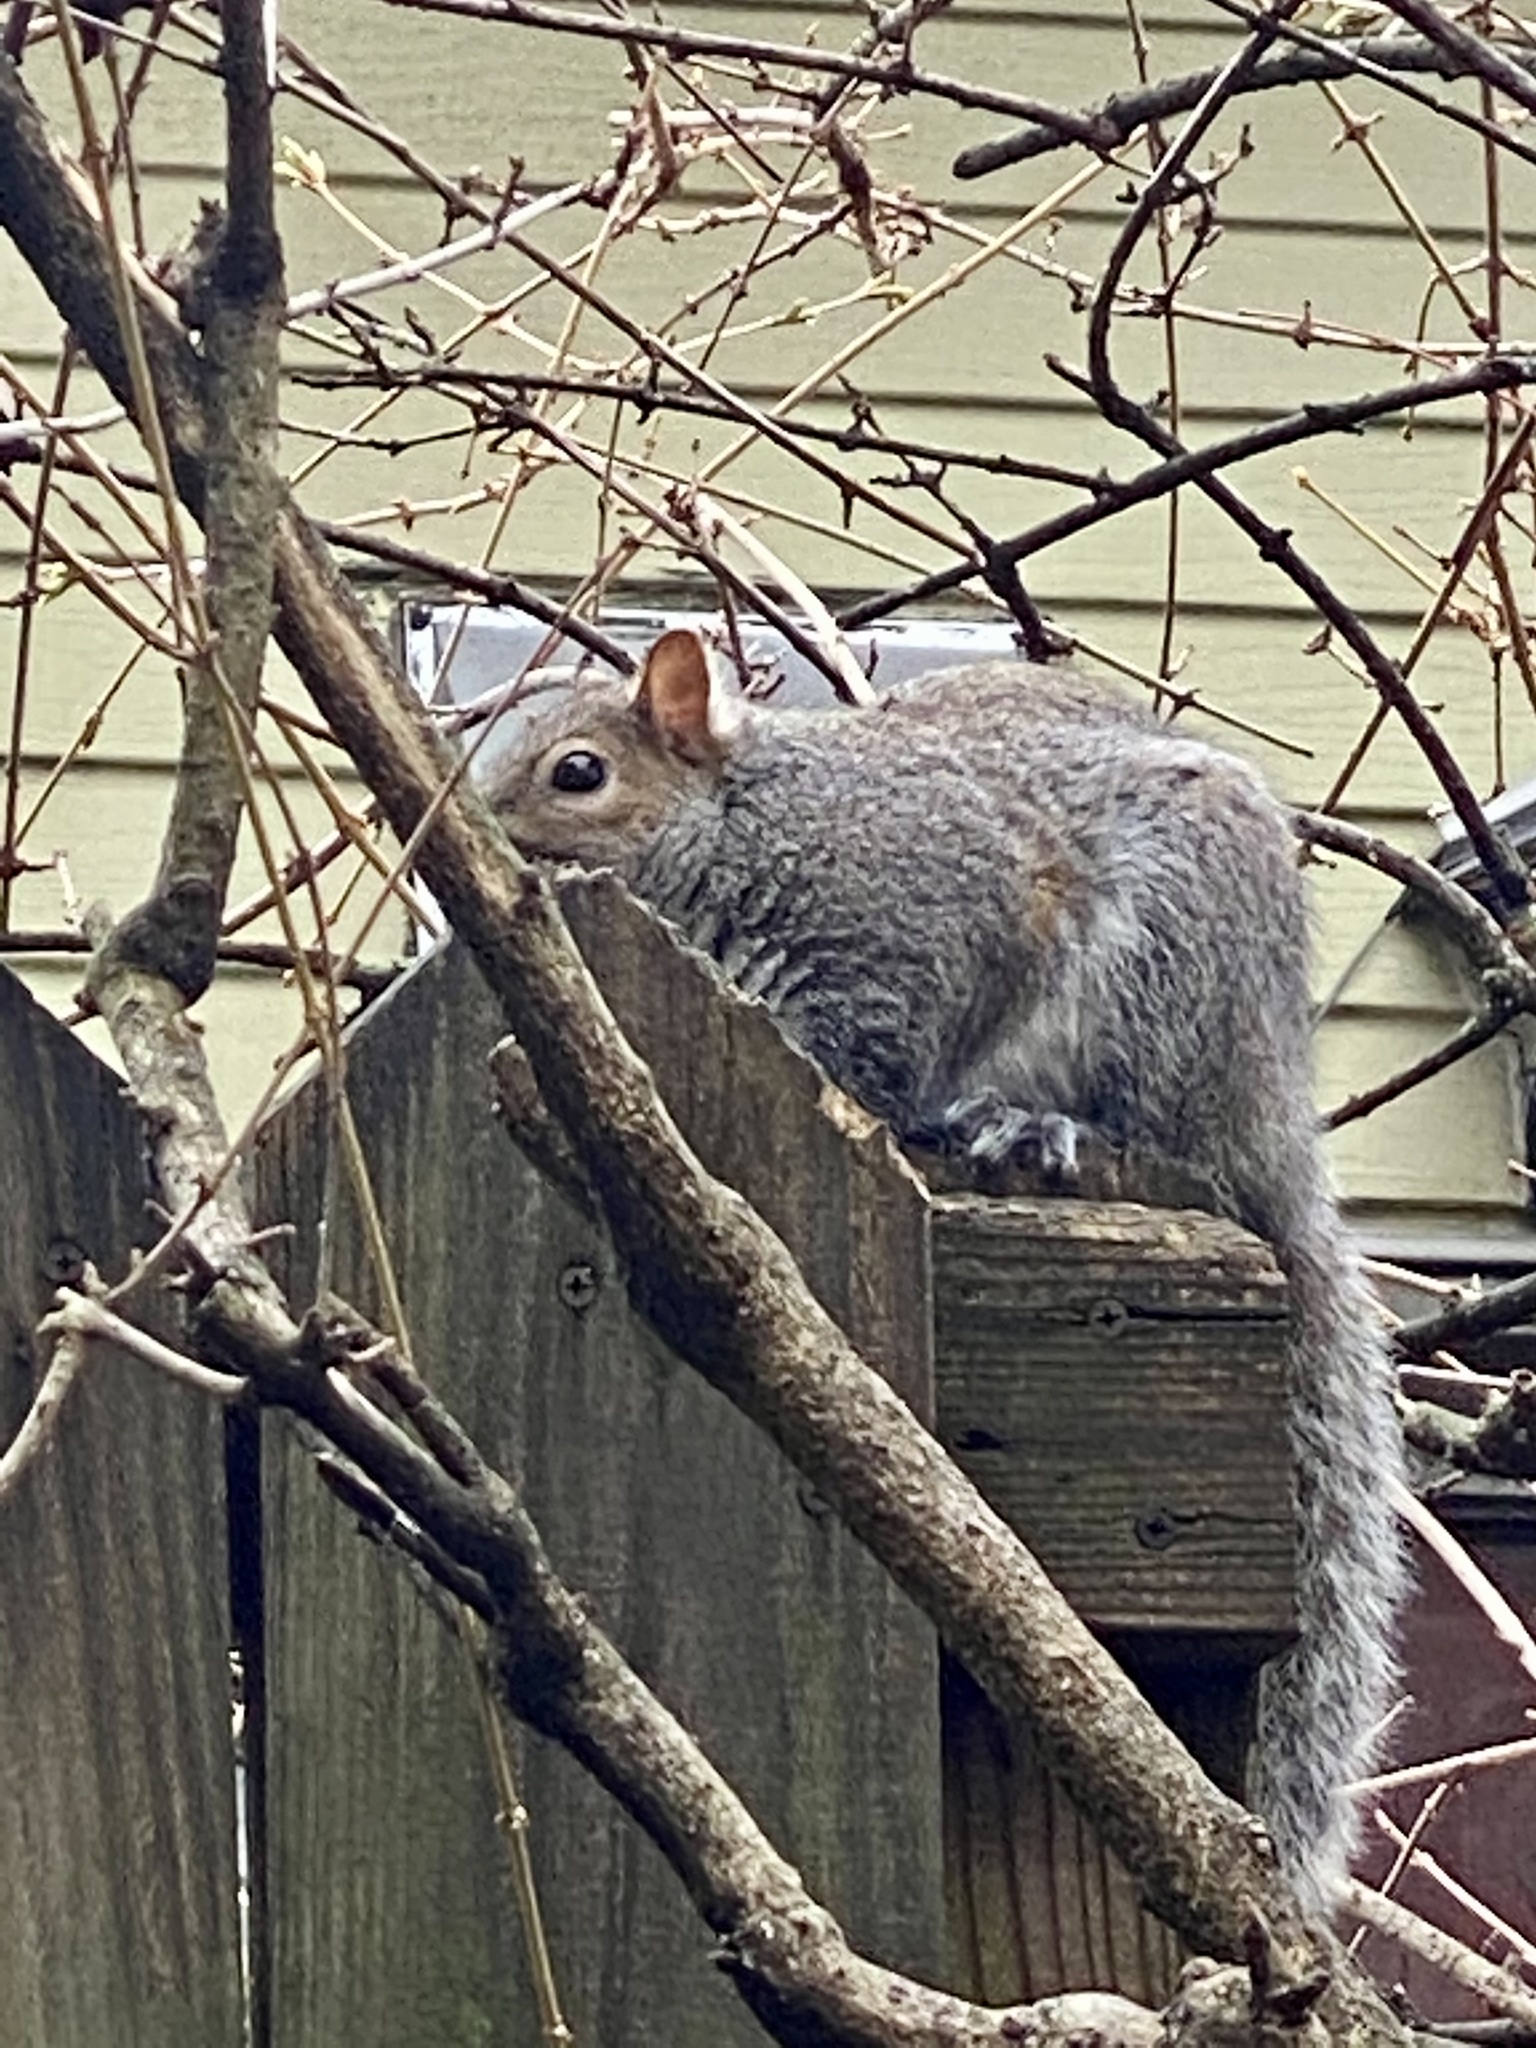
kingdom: Animalia
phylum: Chordata
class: Mammalia
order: Rodentia
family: Sciuridae
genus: Sciurus
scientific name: Sciurus carolinensis
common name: Eastern gray squirrel
